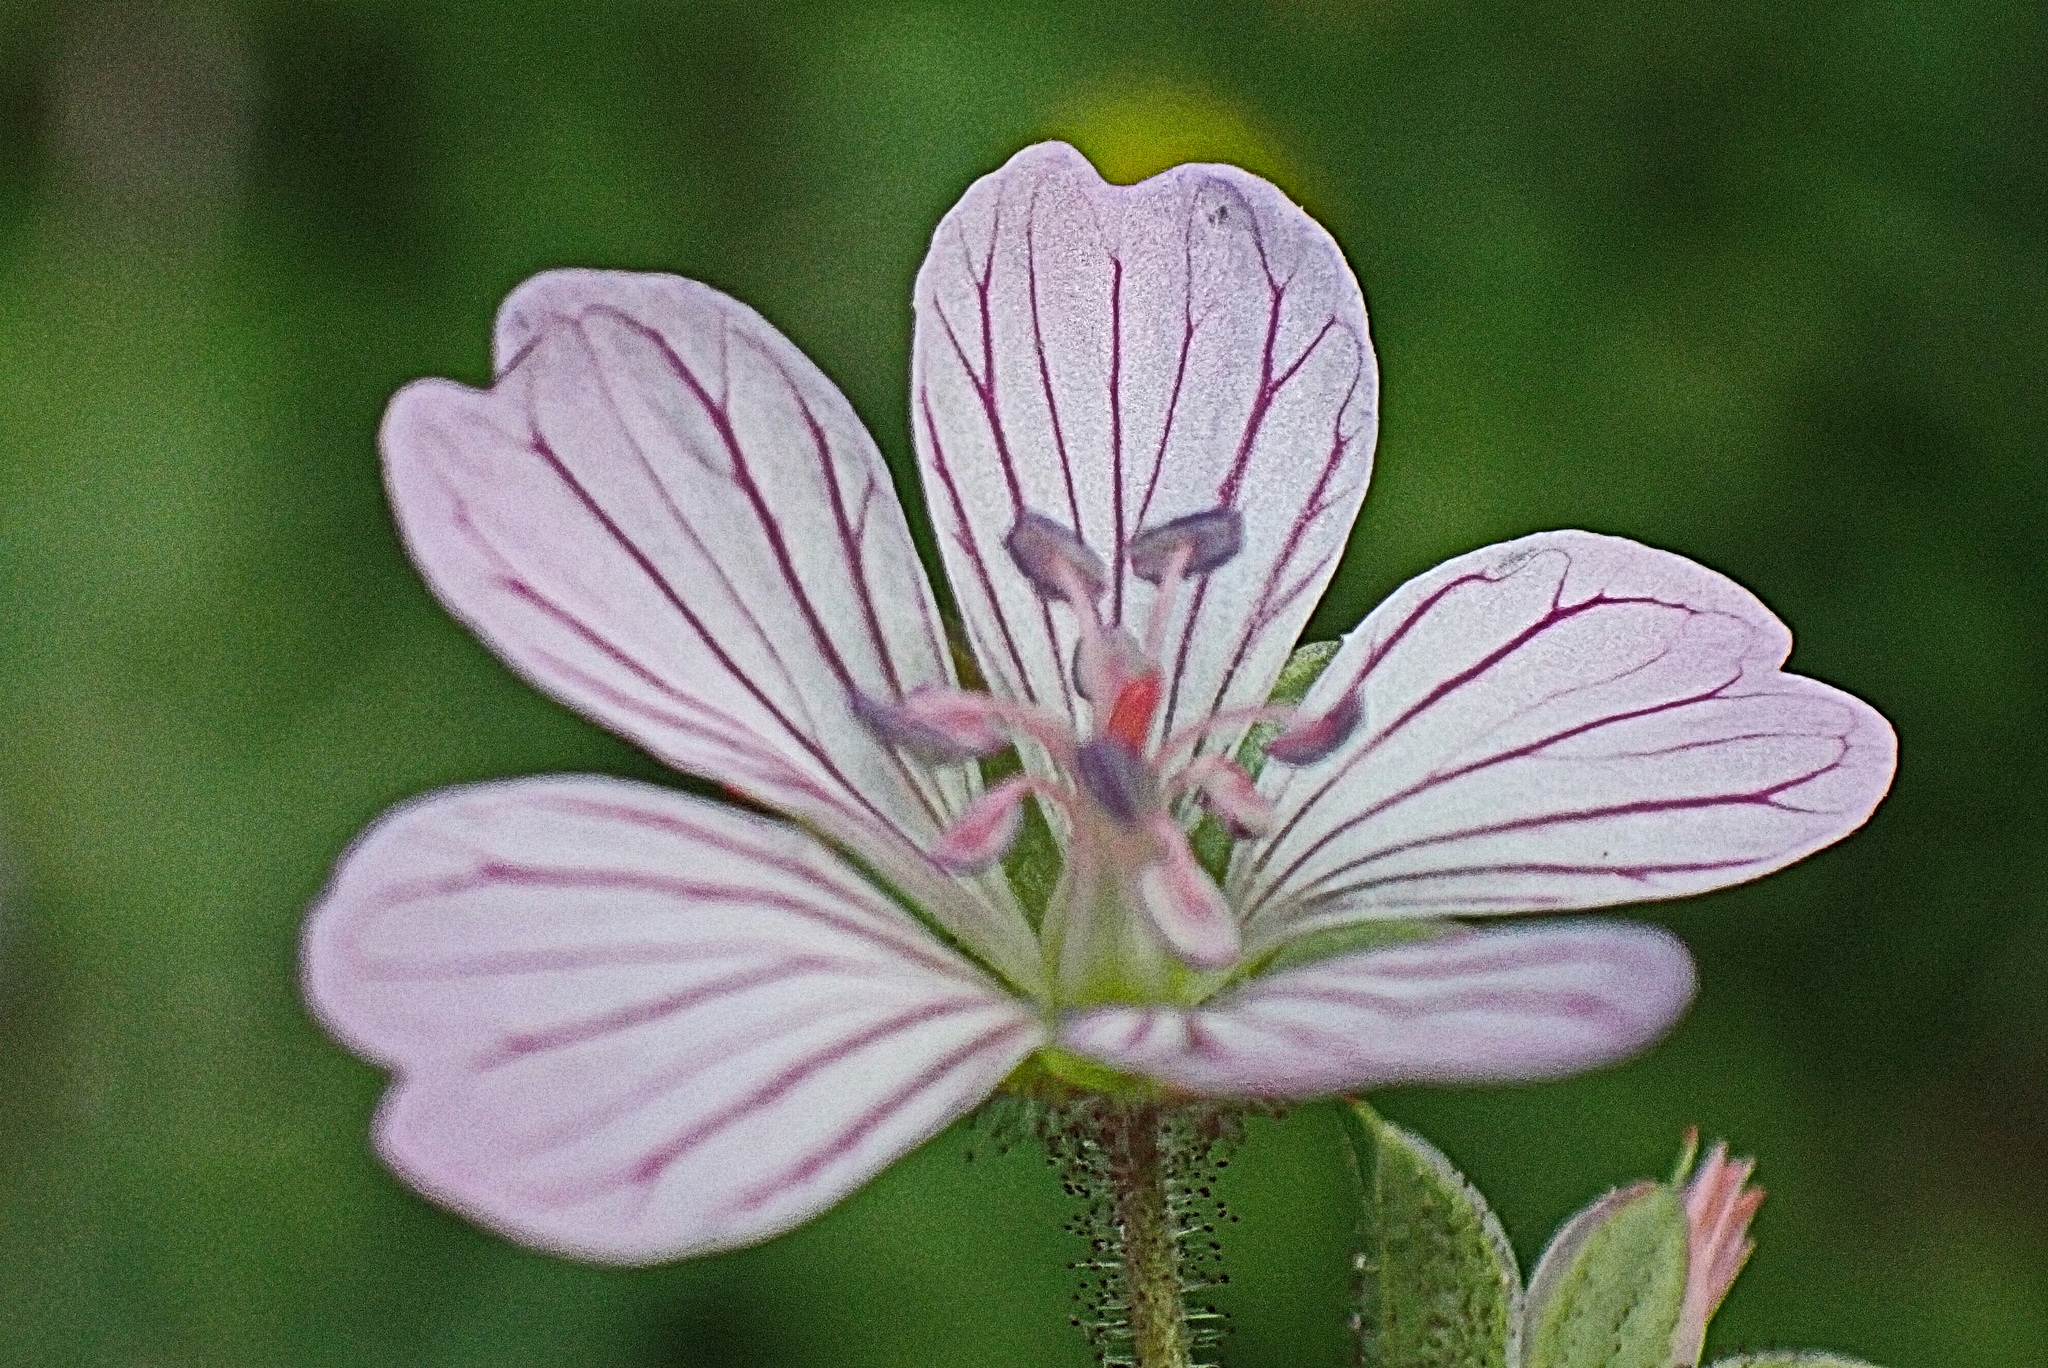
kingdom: Plantae
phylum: Tracheophyta
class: Magnoliopsida
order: Geraniales
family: Geraniaceae
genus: Geranium
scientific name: Geranium ornithopodon
